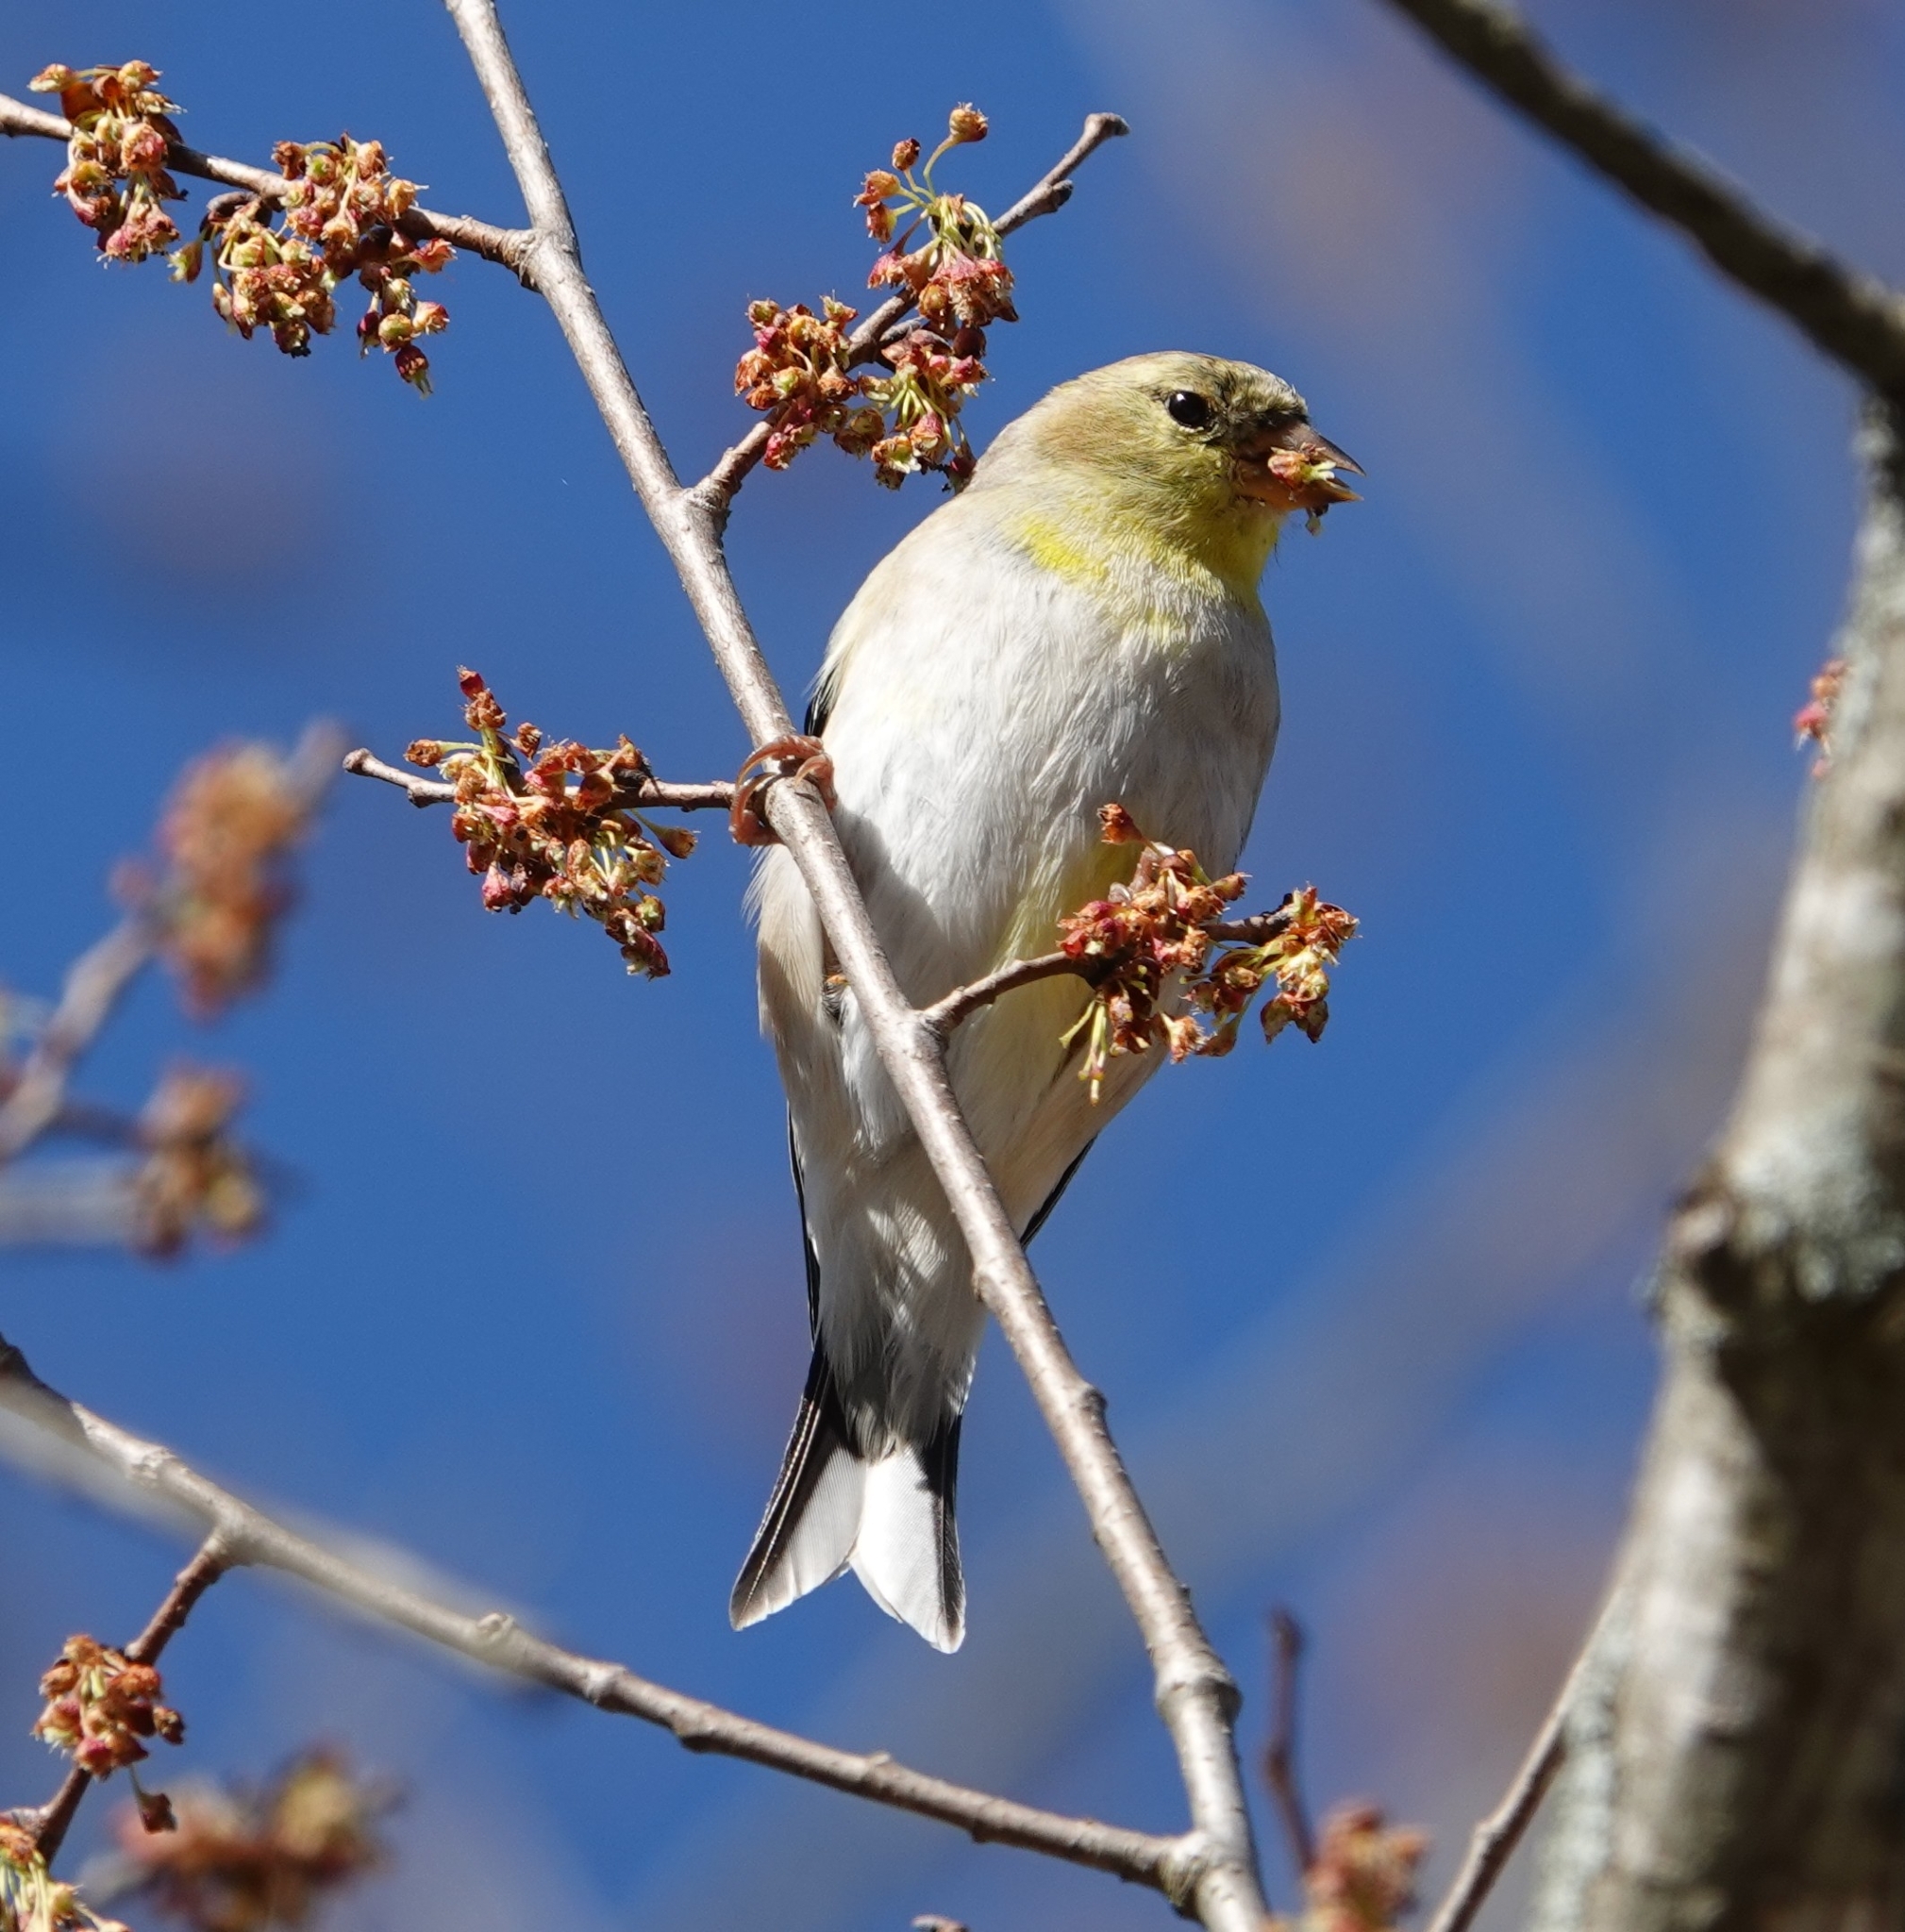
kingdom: Animalia
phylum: Chordata
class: Aves
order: Passeriformes
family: Fringillidae
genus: Spinus
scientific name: Spinus tristis
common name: American goldfinch
